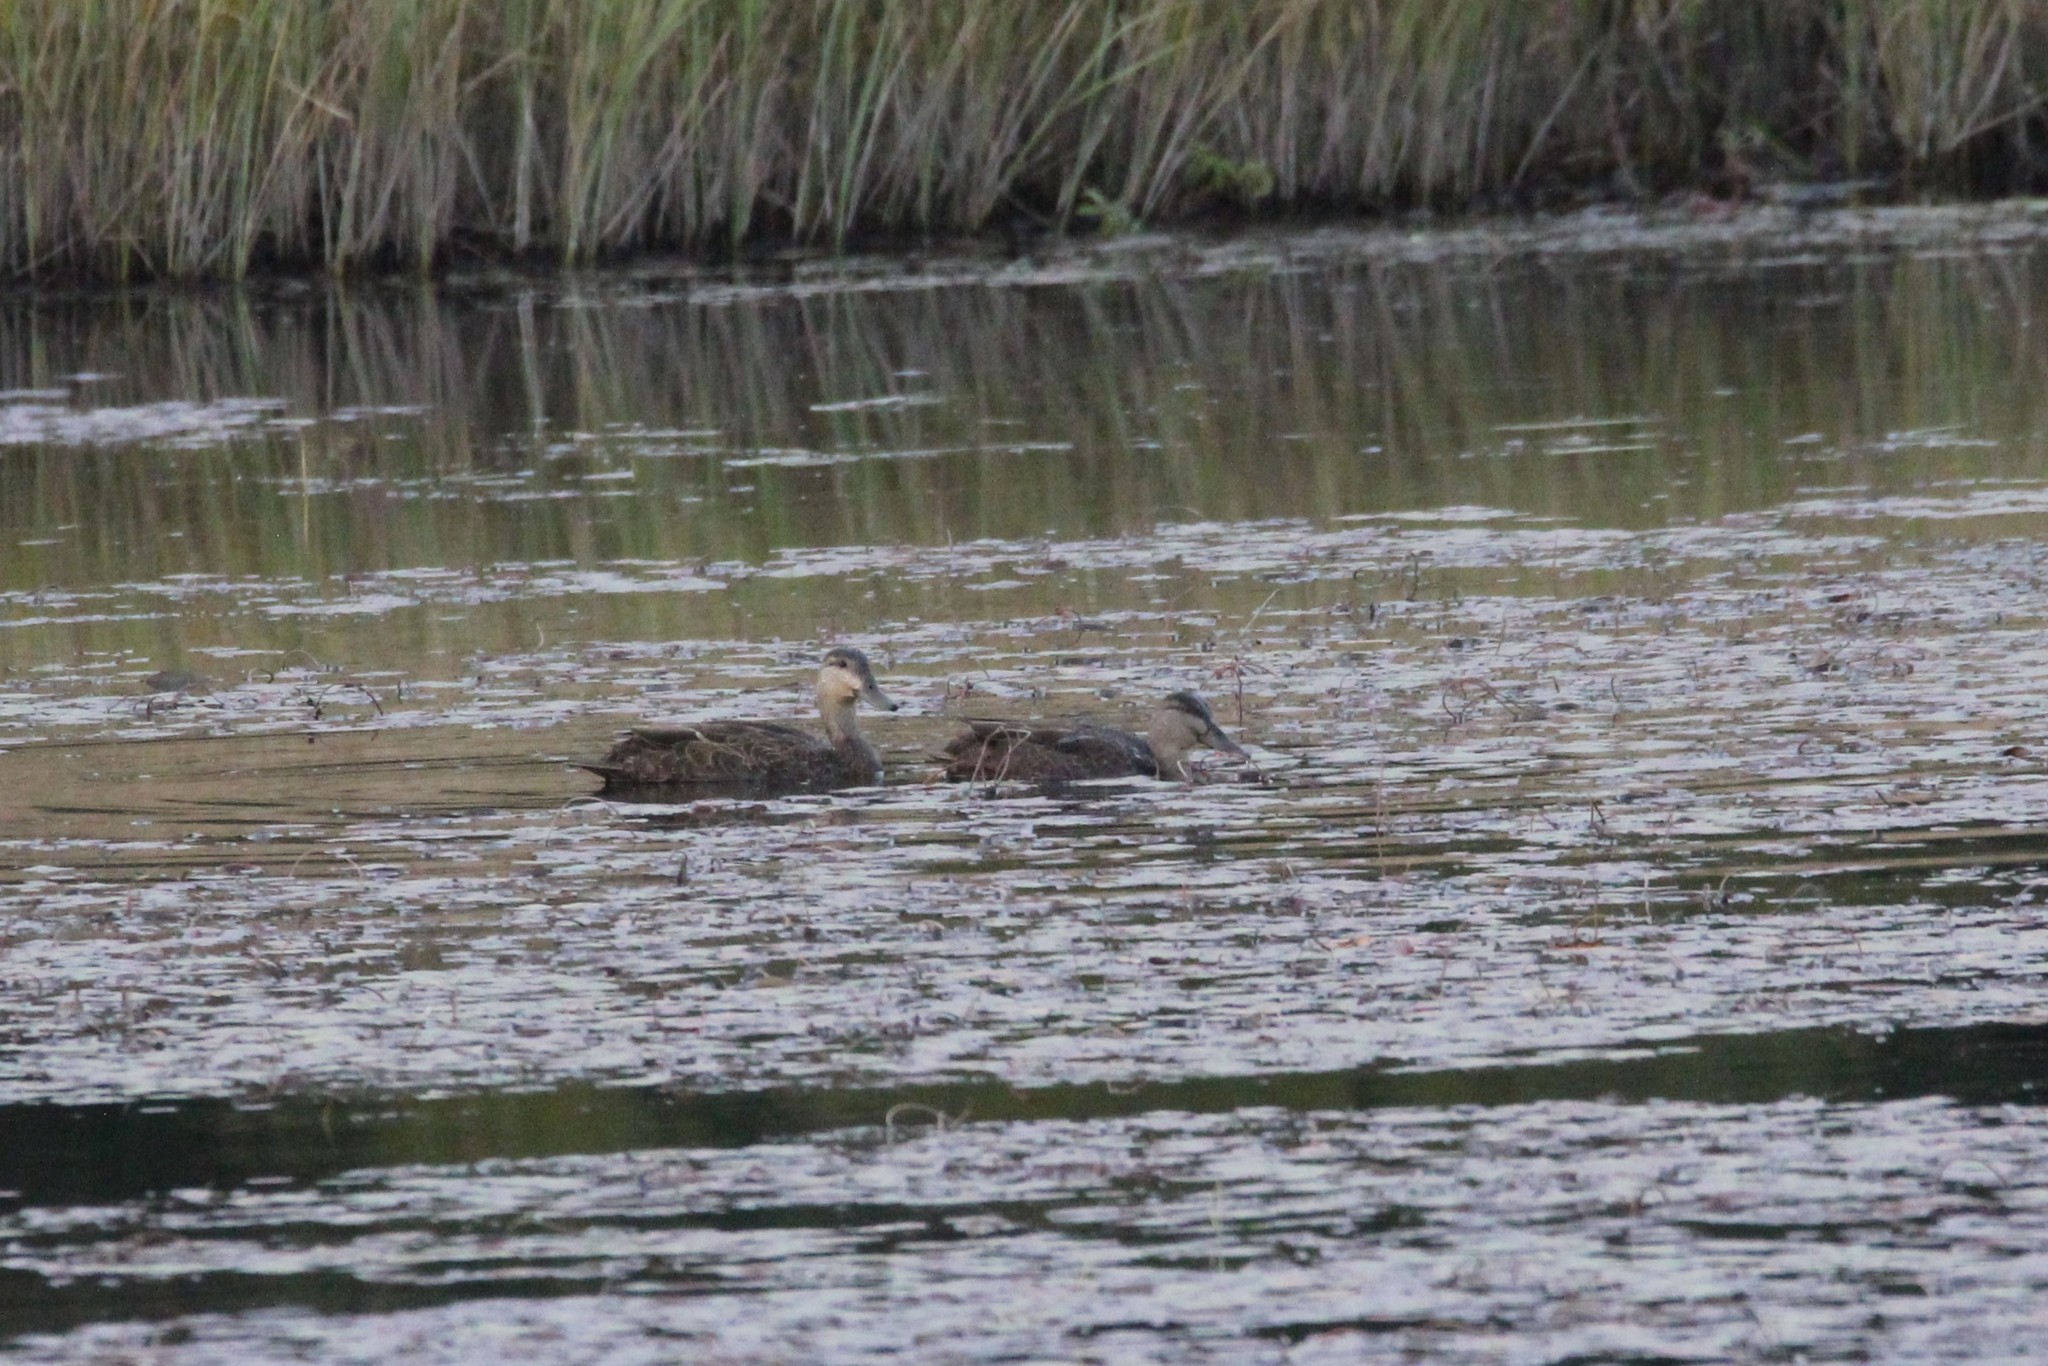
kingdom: Animalia
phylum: Chordata
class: Aves
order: Anseriformes
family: Anatidae
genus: Anas
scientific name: Anas rubripes
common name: American black duck
